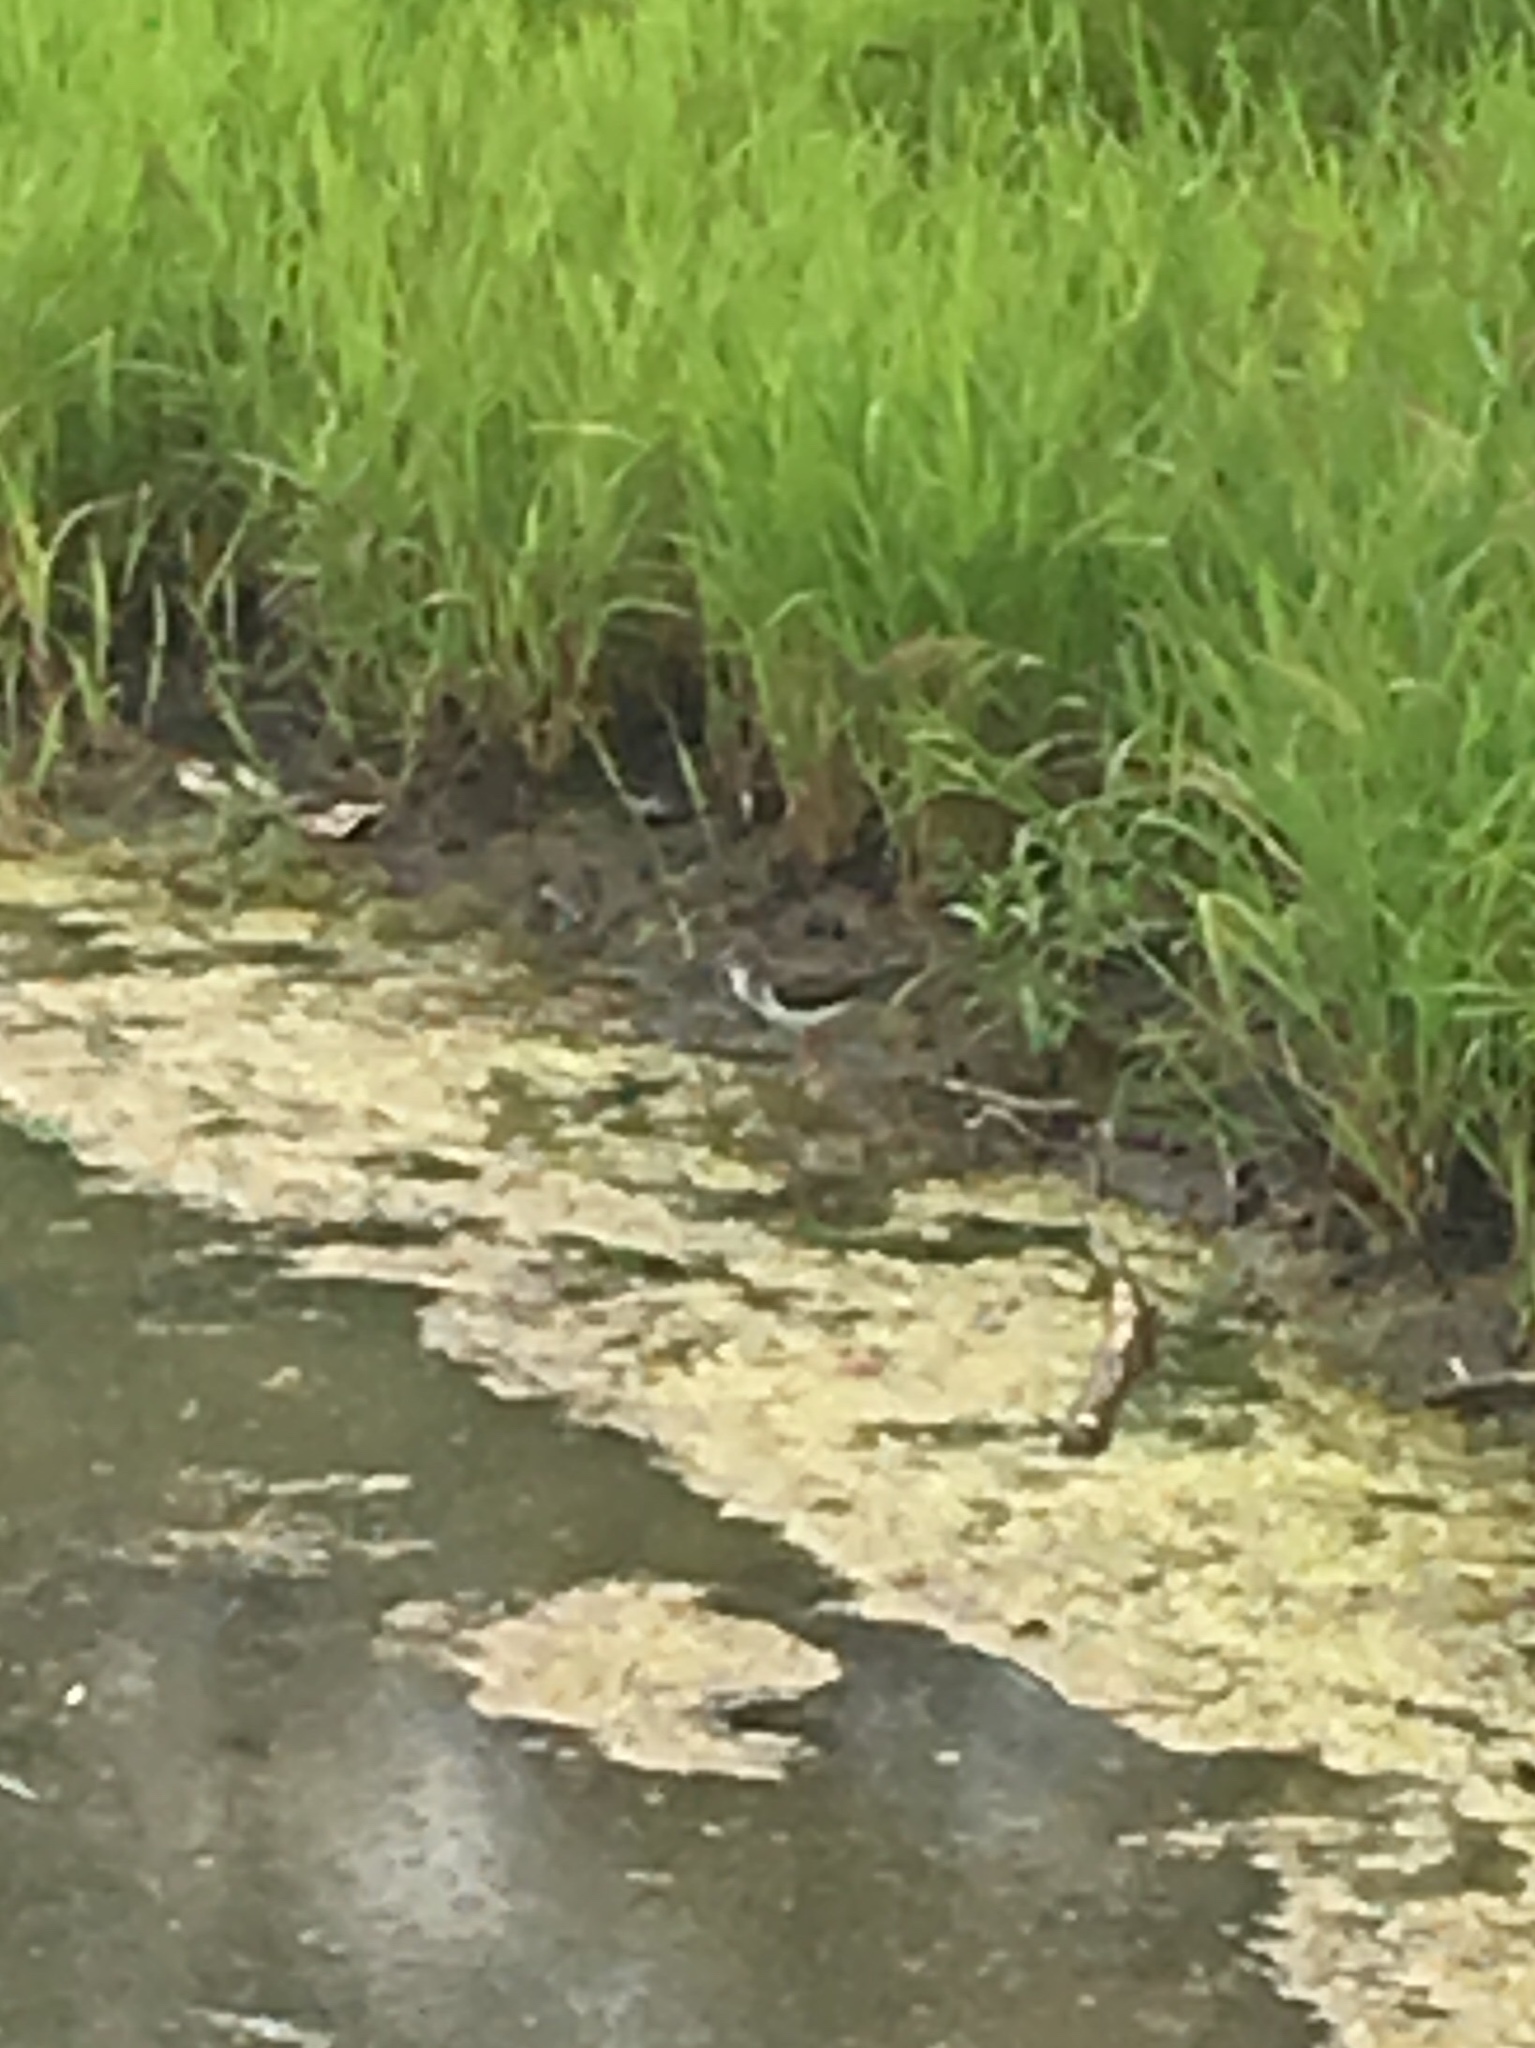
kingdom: Animalia
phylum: Chordata
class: Aves
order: Charadriiformes
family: Scolopacidae
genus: Actitis
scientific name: Actitis macularius
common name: Spotted sandpiper
